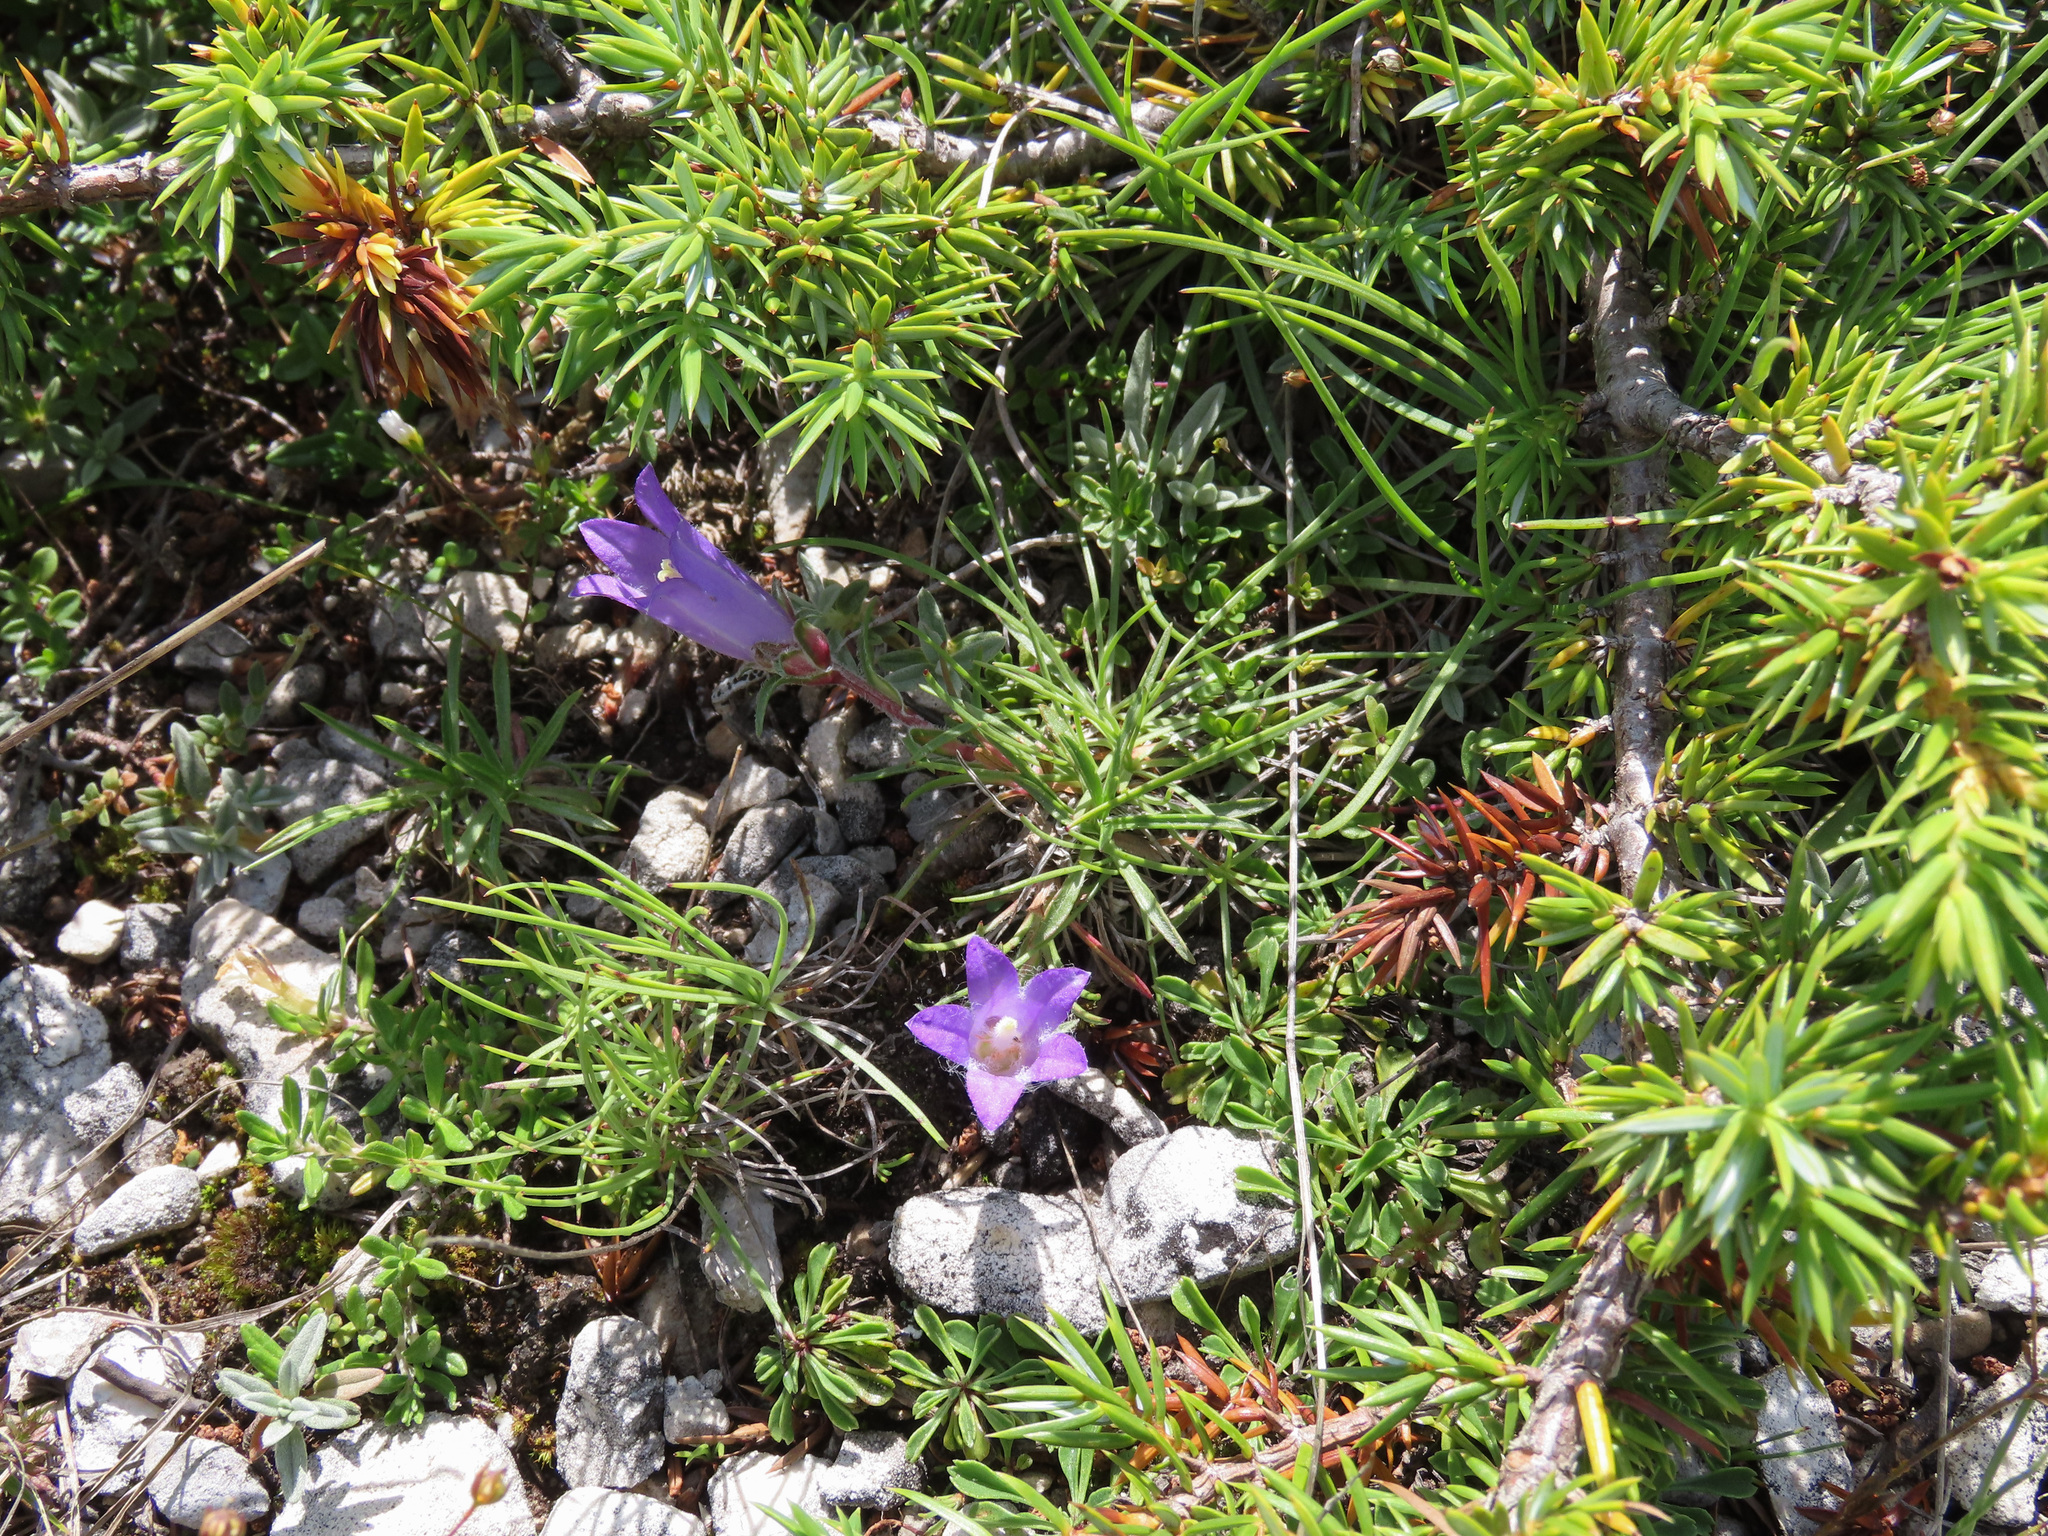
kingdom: Plantae
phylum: Tracheophyta
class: Magnoliopsida
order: Asterales
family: Campanulaceae
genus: Edraianthus
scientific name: Edraianthus graminifolius
